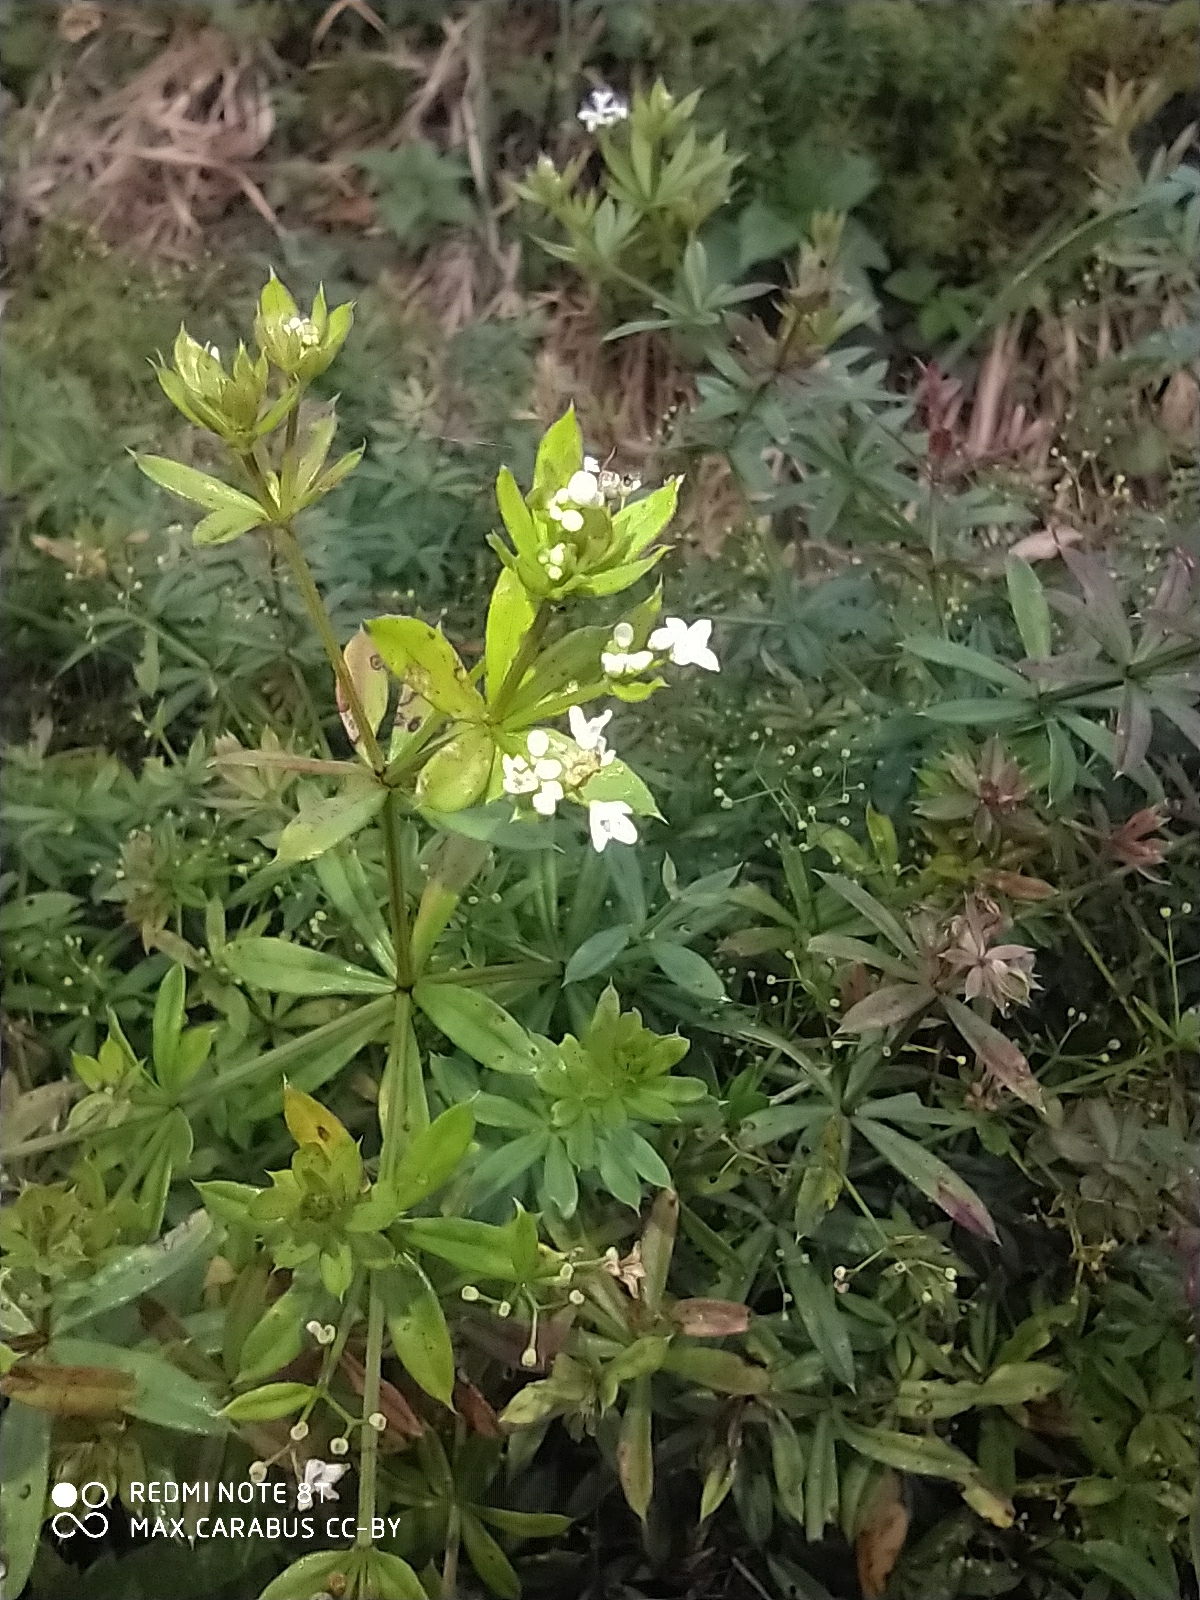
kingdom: Plantae
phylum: Tracheophyta
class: Magnoliopsida
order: Gentianales
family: Rubiaceae
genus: Galium
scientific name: Galium rivale
